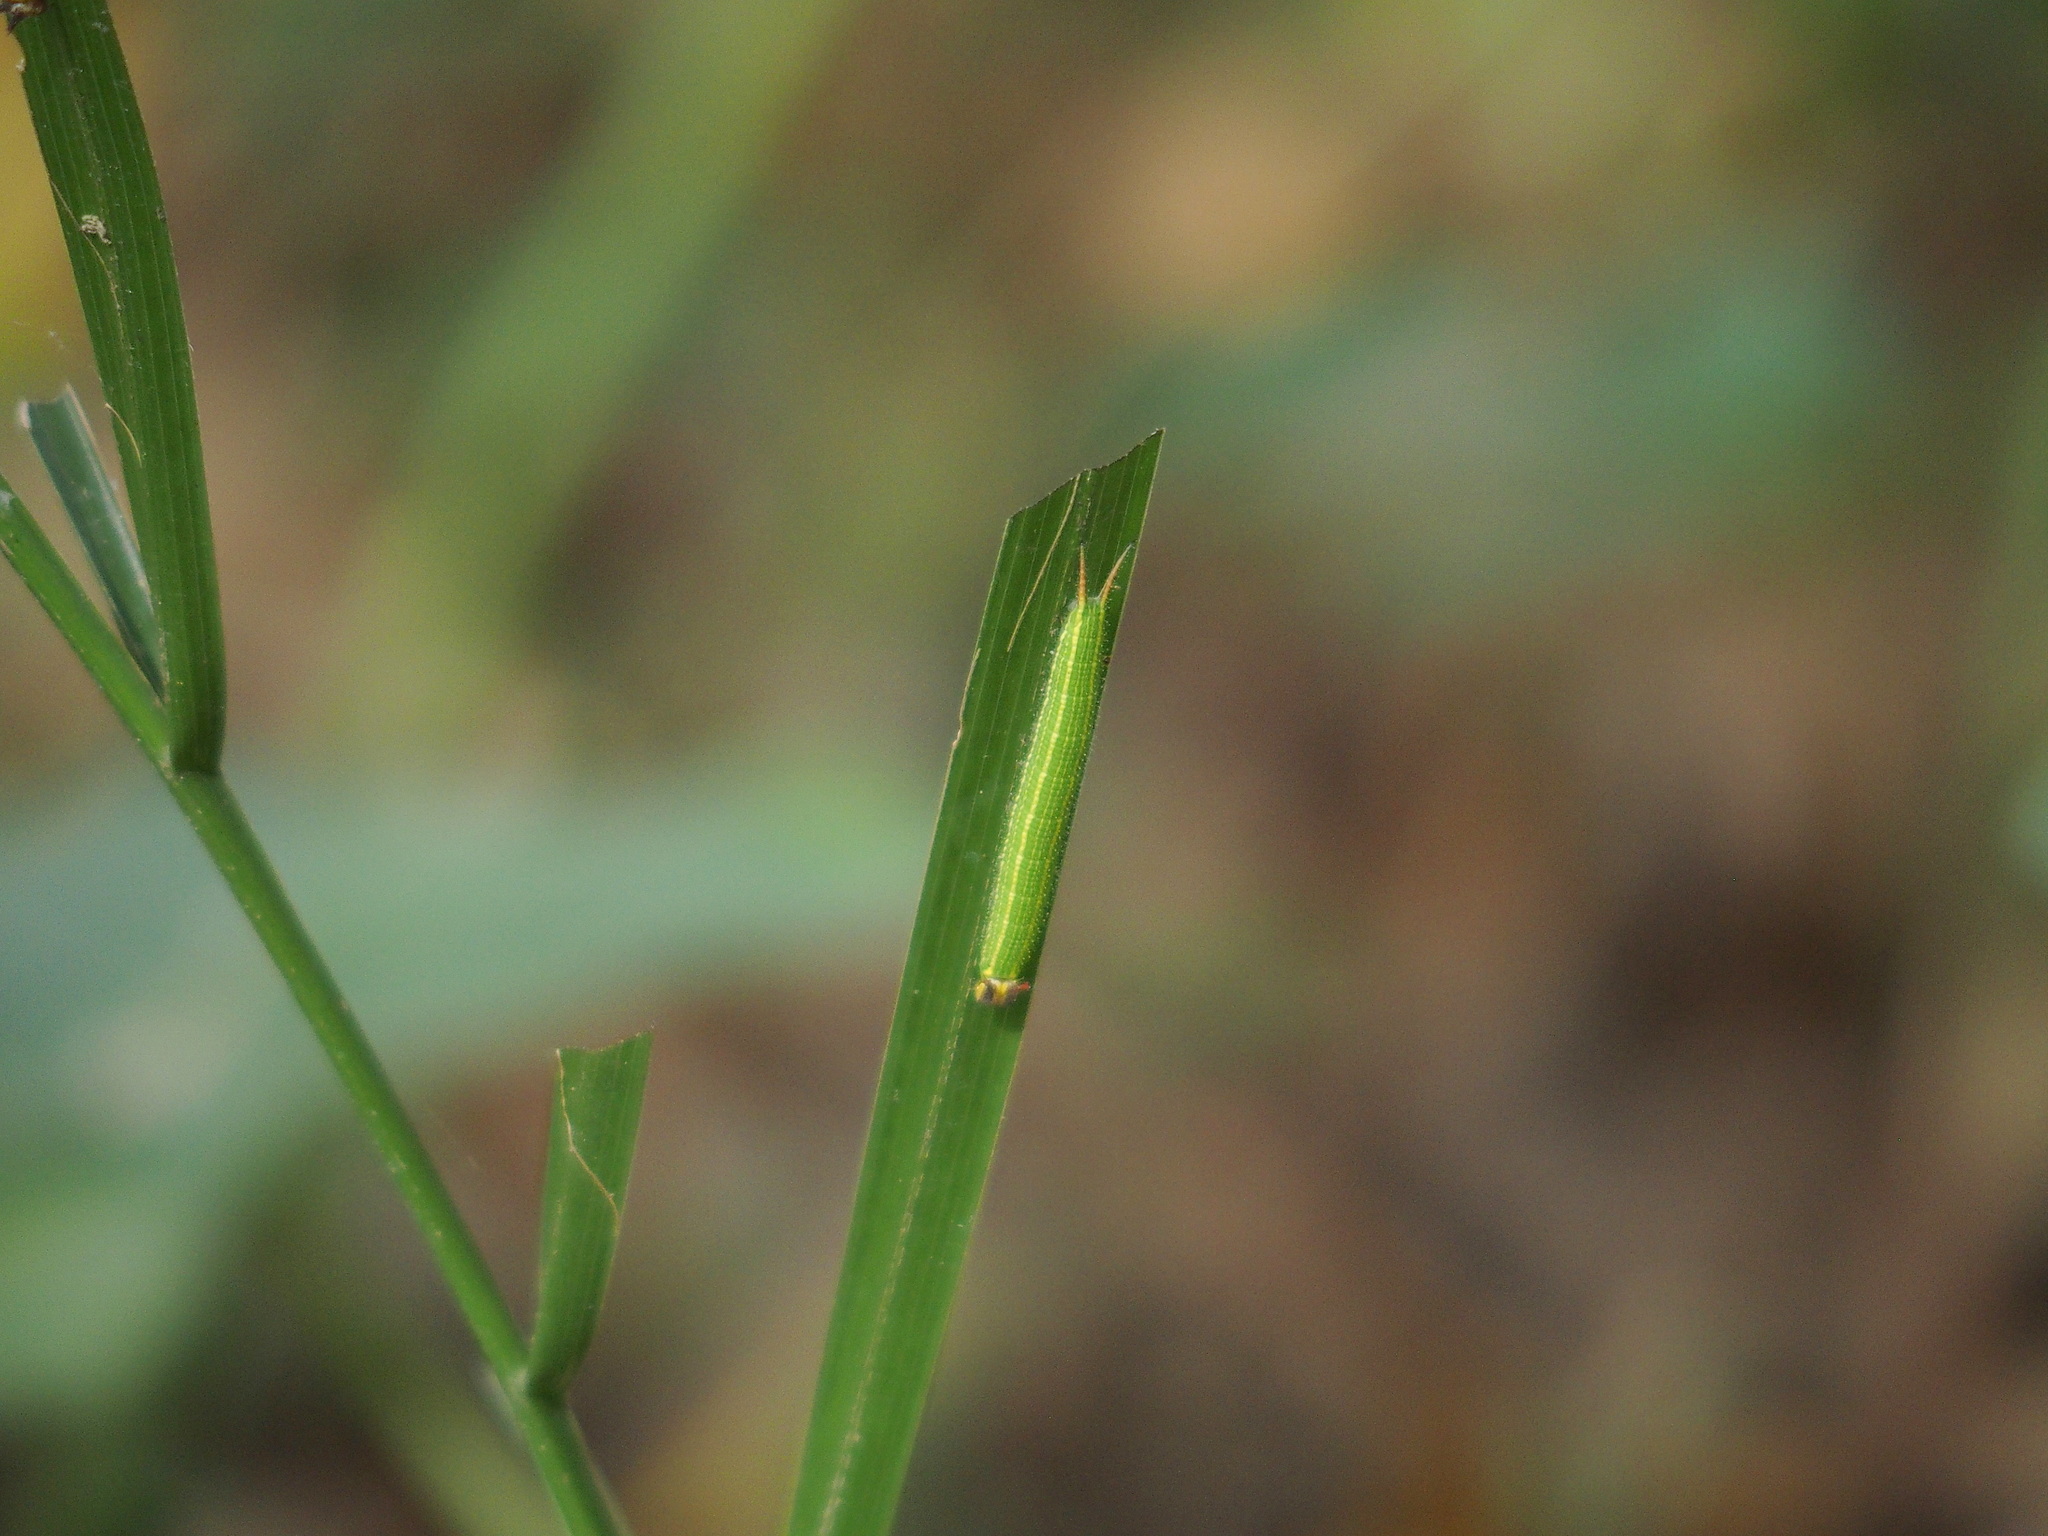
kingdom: Animalia
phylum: Arthropoda
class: Insecta
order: Lepidoptera
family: Nymphalidae
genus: Elymnias
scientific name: Elymnias hypermnestra
